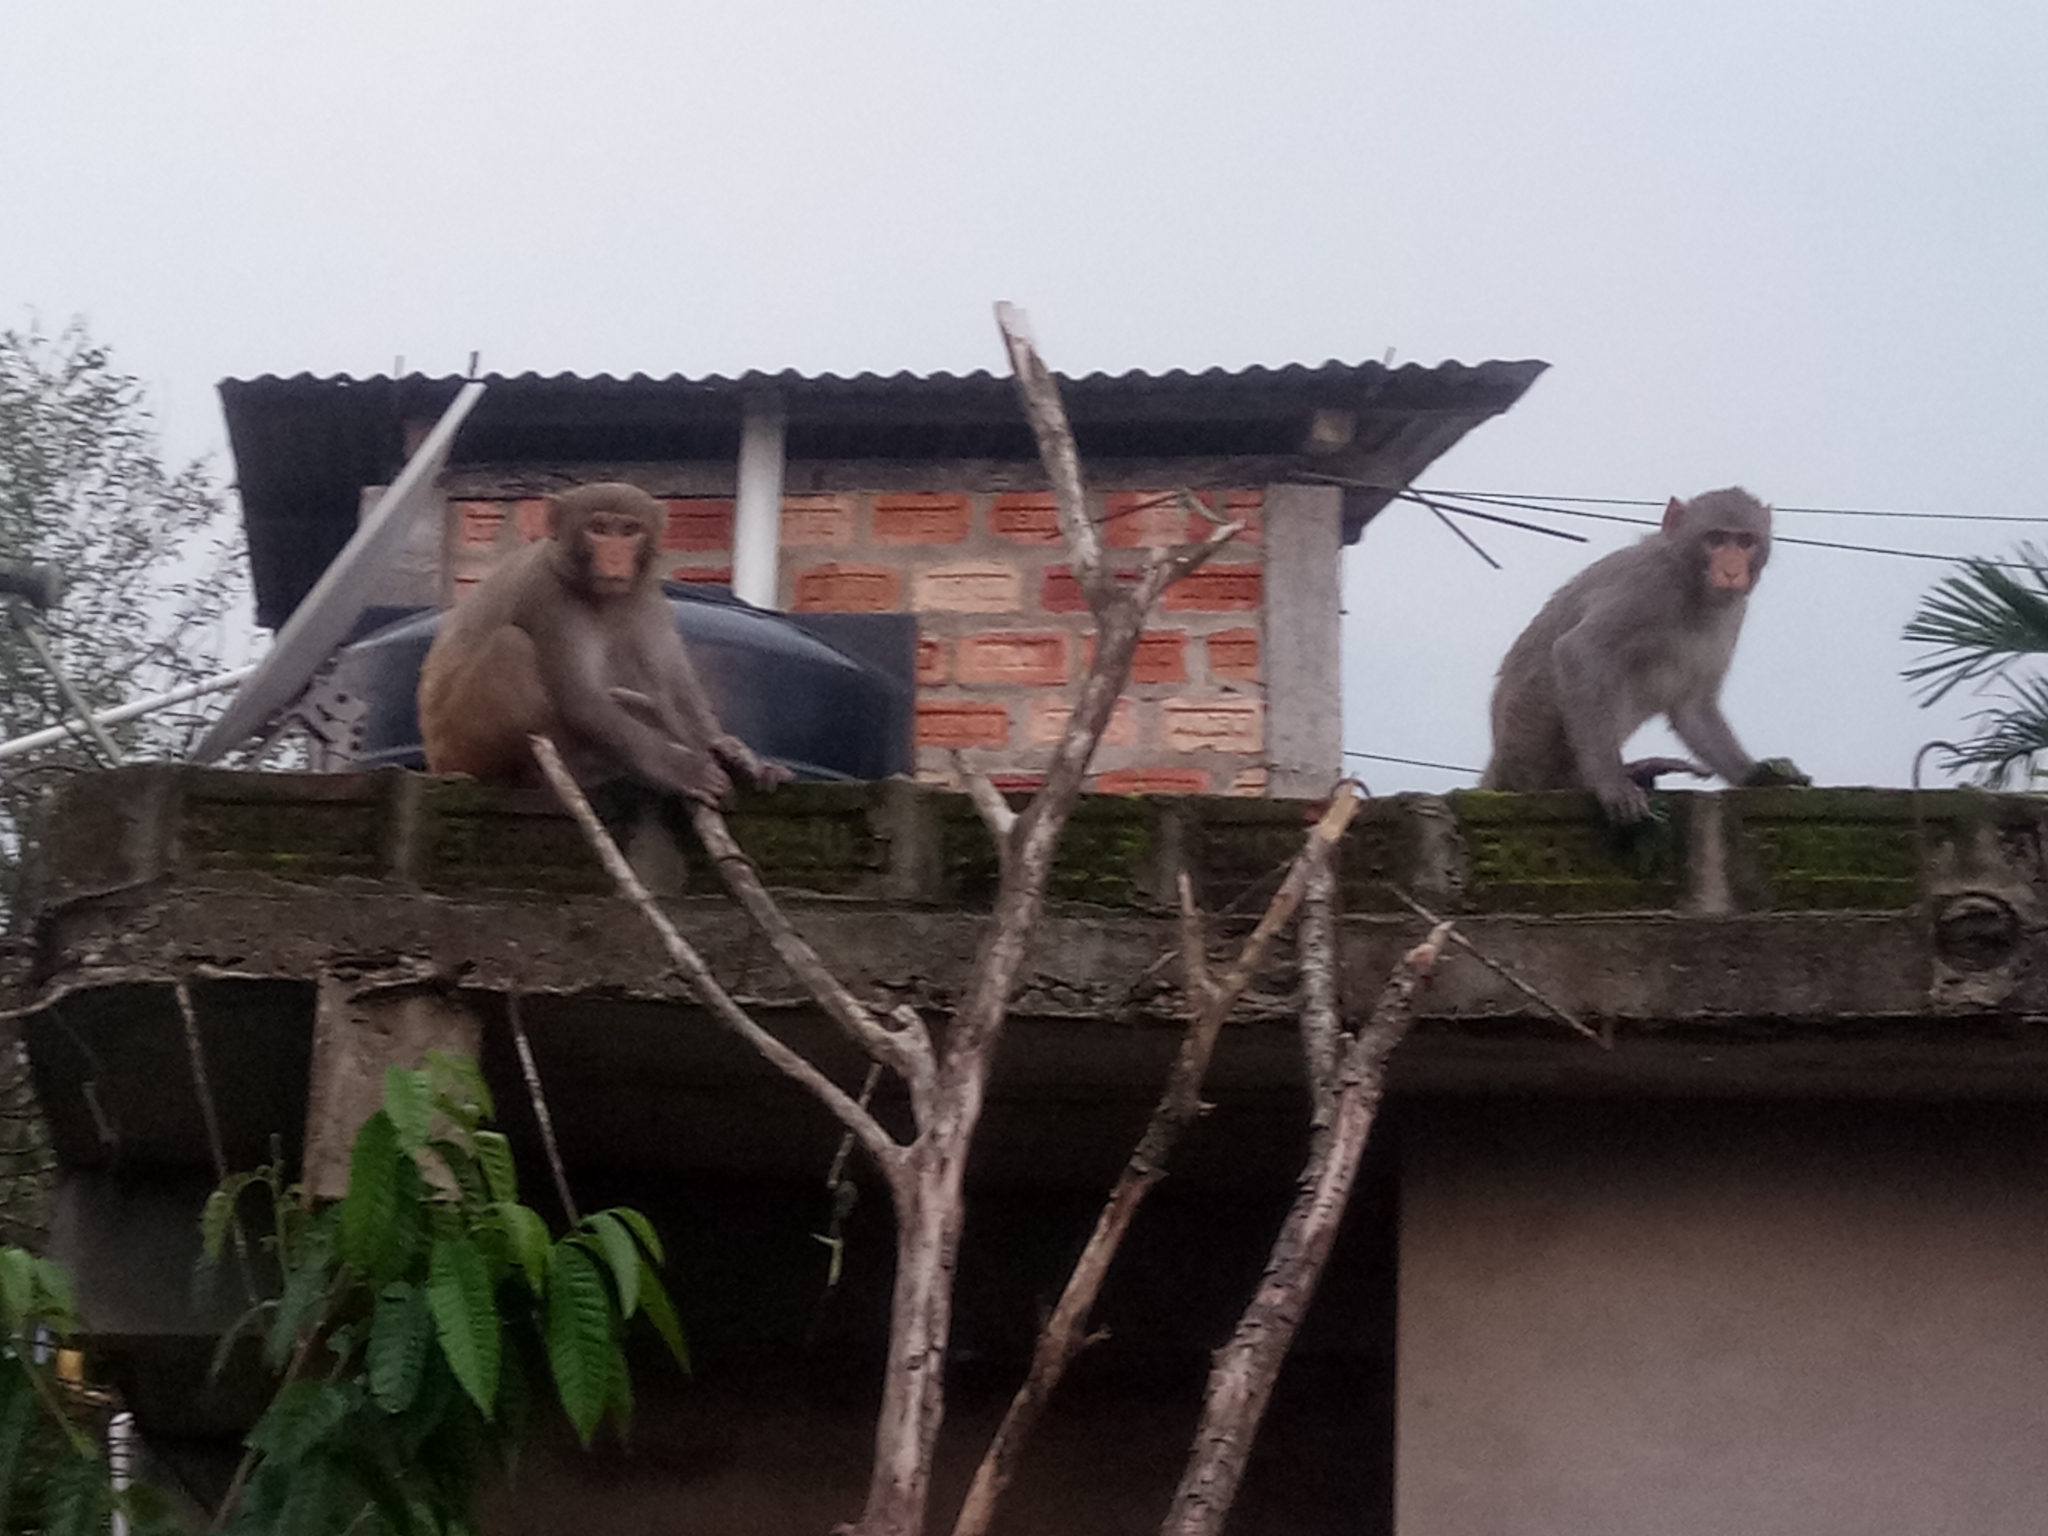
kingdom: Animalia
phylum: Chordata
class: Mammalia
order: Primates
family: Cercopithecidae
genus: Macaca
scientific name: Macaca mulatta
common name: Rhesus monkey
